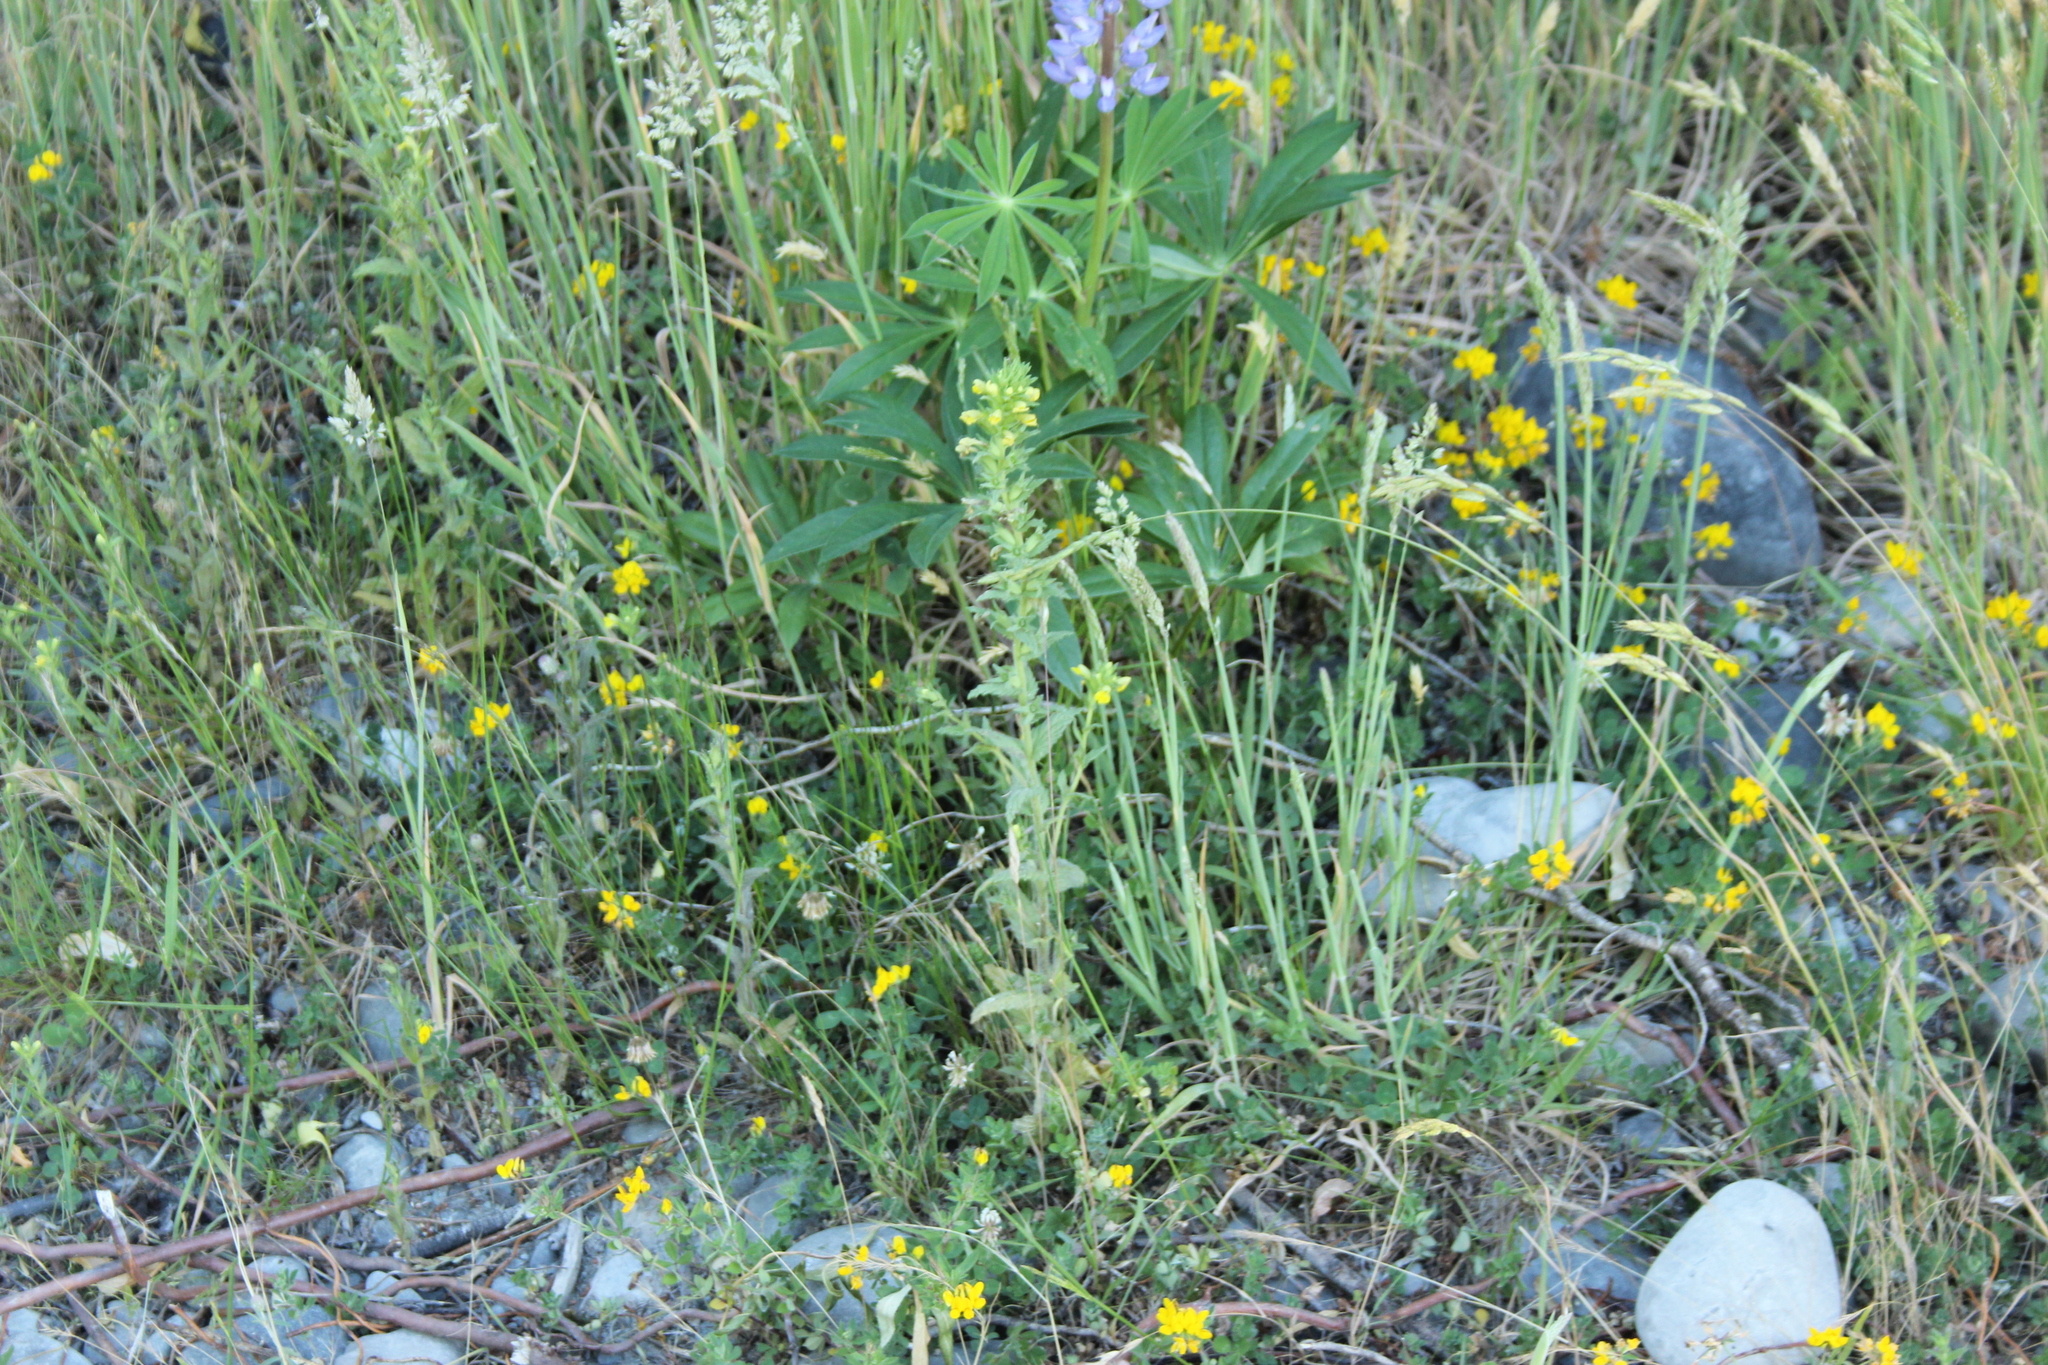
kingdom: Plantae
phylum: Tracheophyta
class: Magnoliopsida
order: Lamiales
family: Orobanchaceae
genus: Bellardia
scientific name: Bellardia viscosa
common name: Sticky parentucellia
